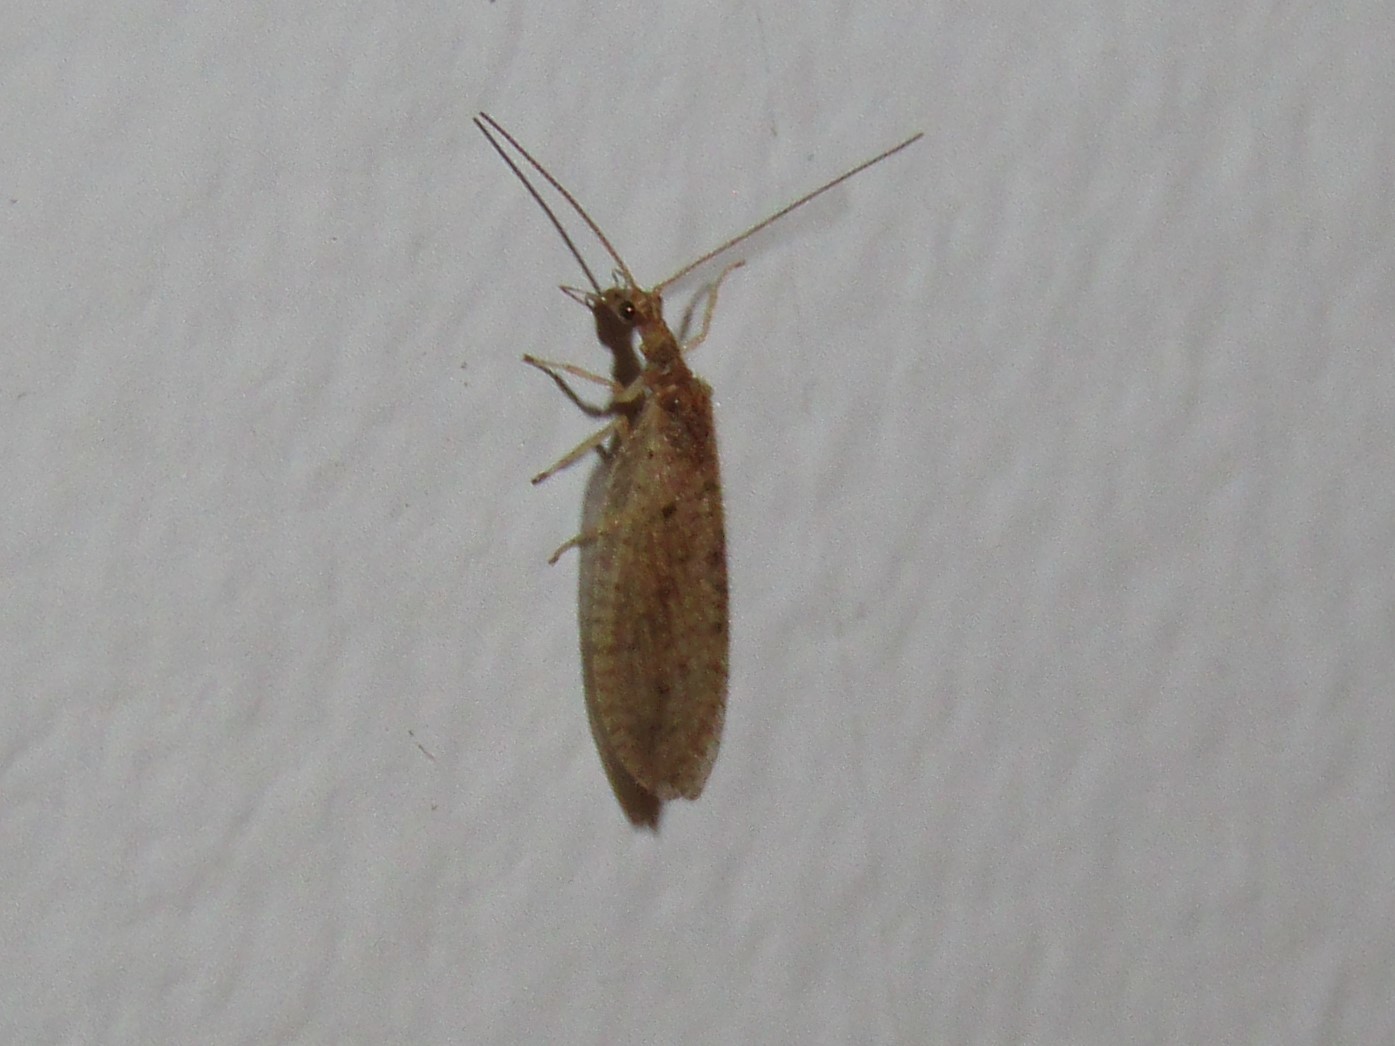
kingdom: Animalia
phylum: Arthropoda
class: Insecta
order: Neuroptera
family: Hemerobiidae
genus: Micromus
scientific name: Micromus subanticus
